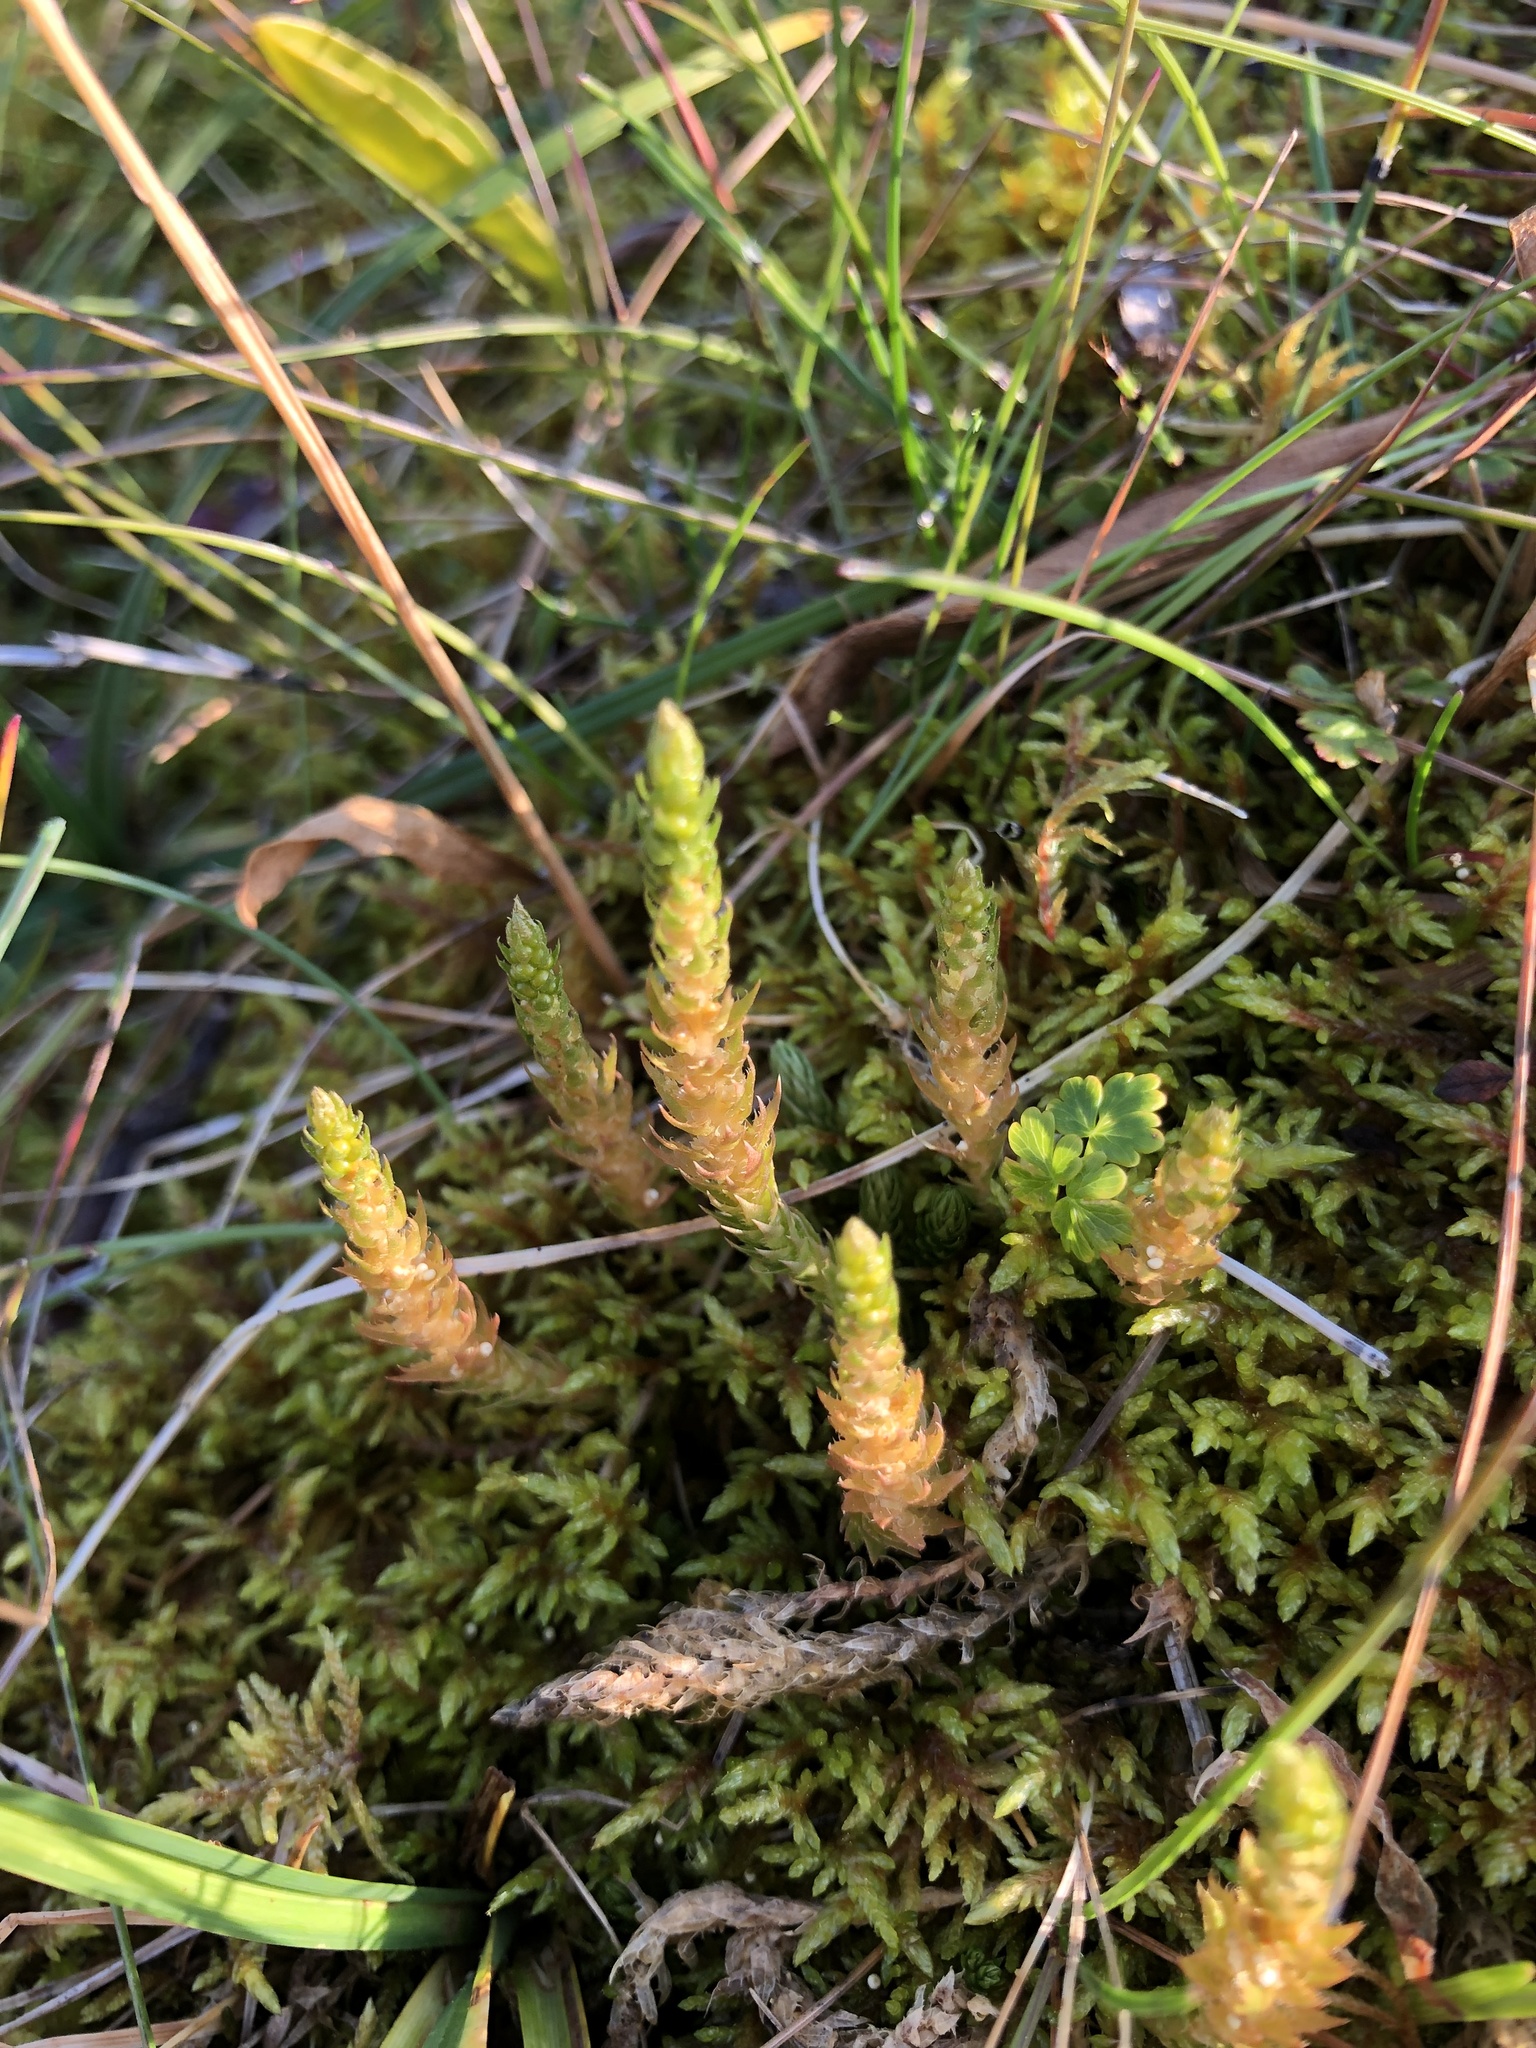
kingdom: Plantae
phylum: Tracheophyta
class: Lycopodiopsida
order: Selaginellales
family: Selaginellaceae
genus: Selaginella
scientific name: Selaginella selaginoides
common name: Prickly mountain-moss
